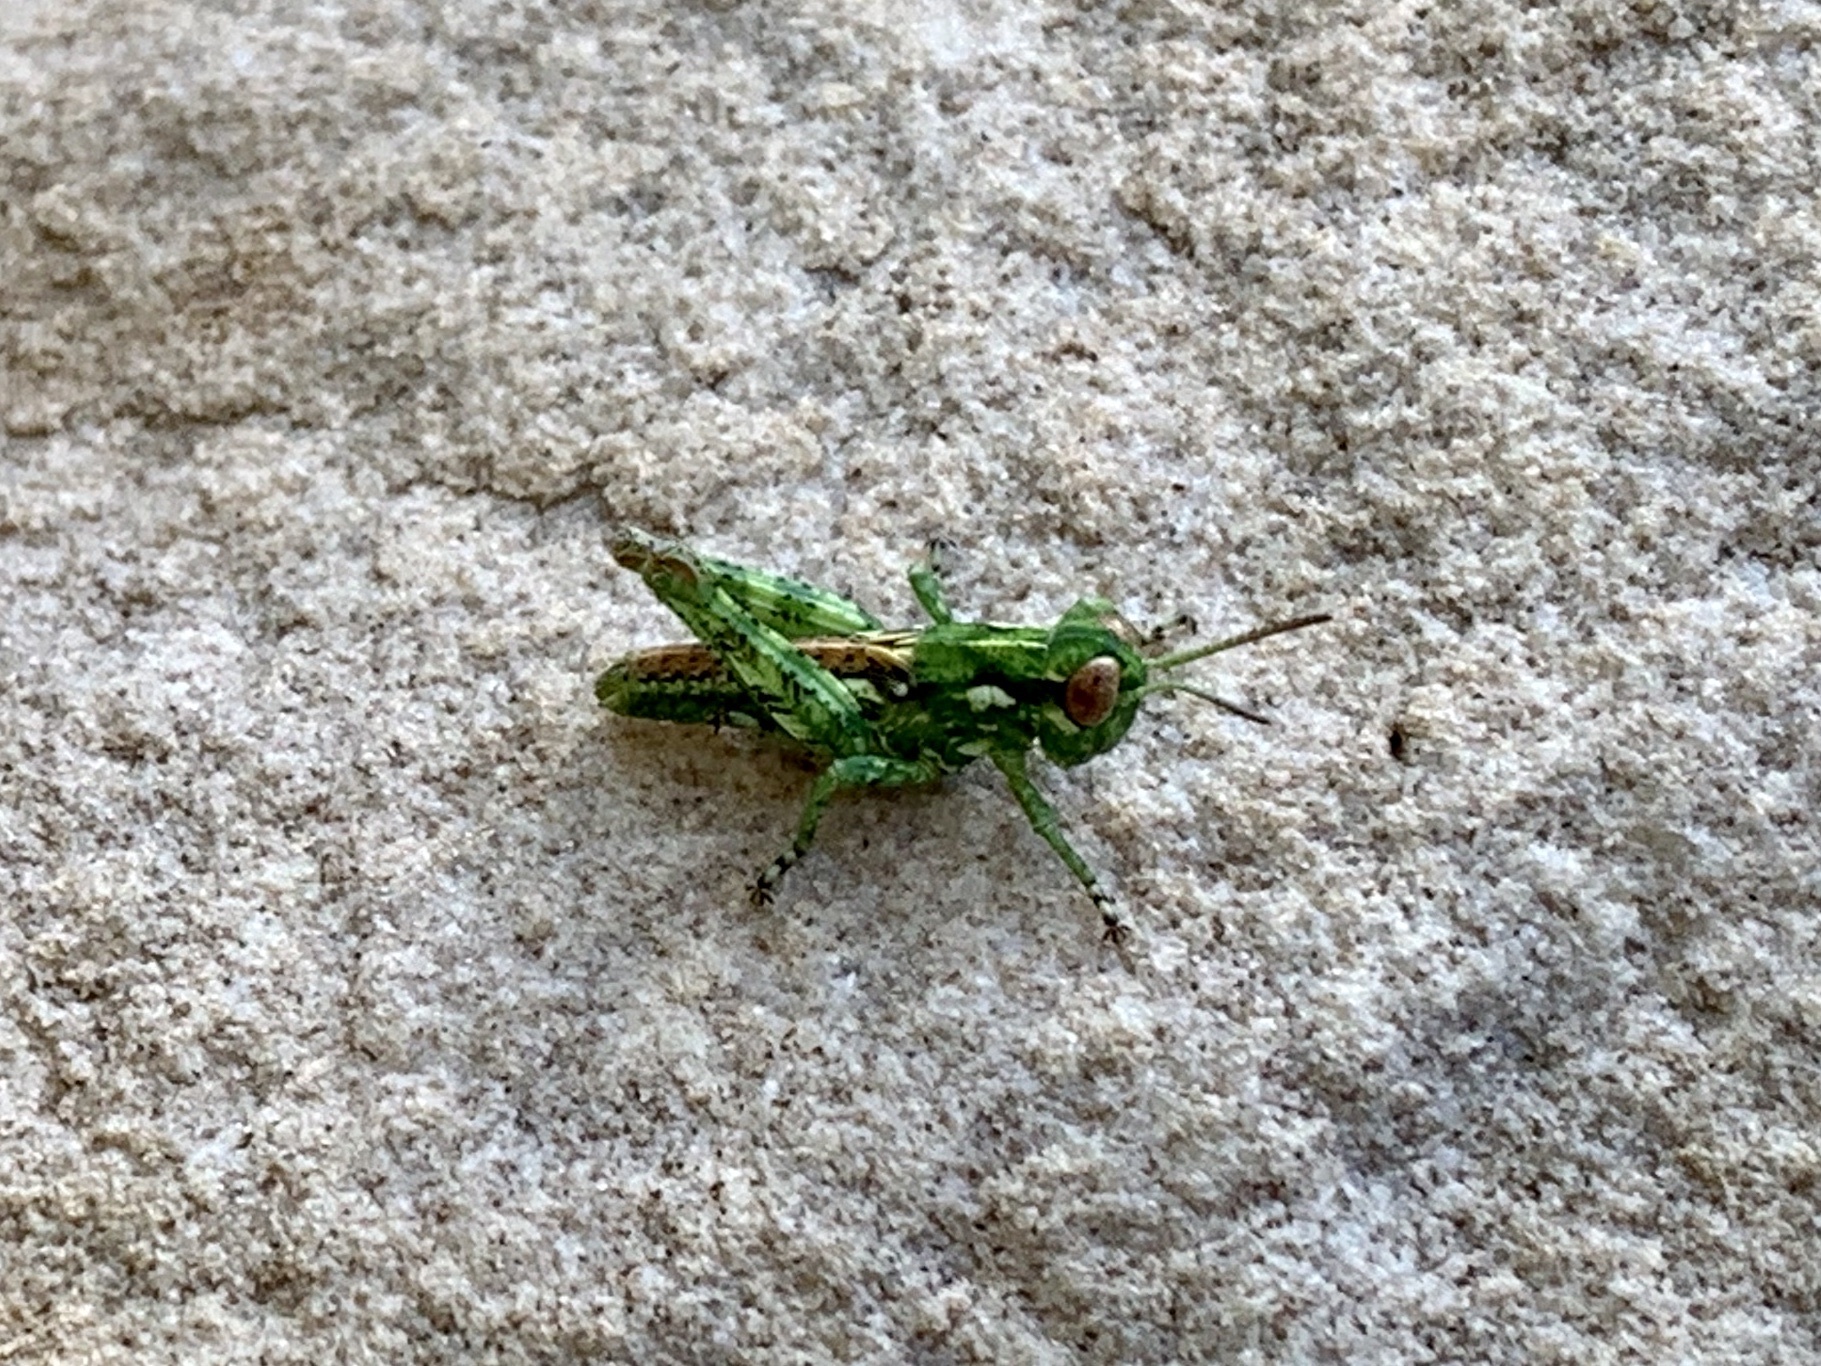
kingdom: Animalia
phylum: Arthropoda
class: Insecta
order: Orthoptera
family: Acrididae
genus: Melanoplus
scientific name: Melanoplus splendidus
